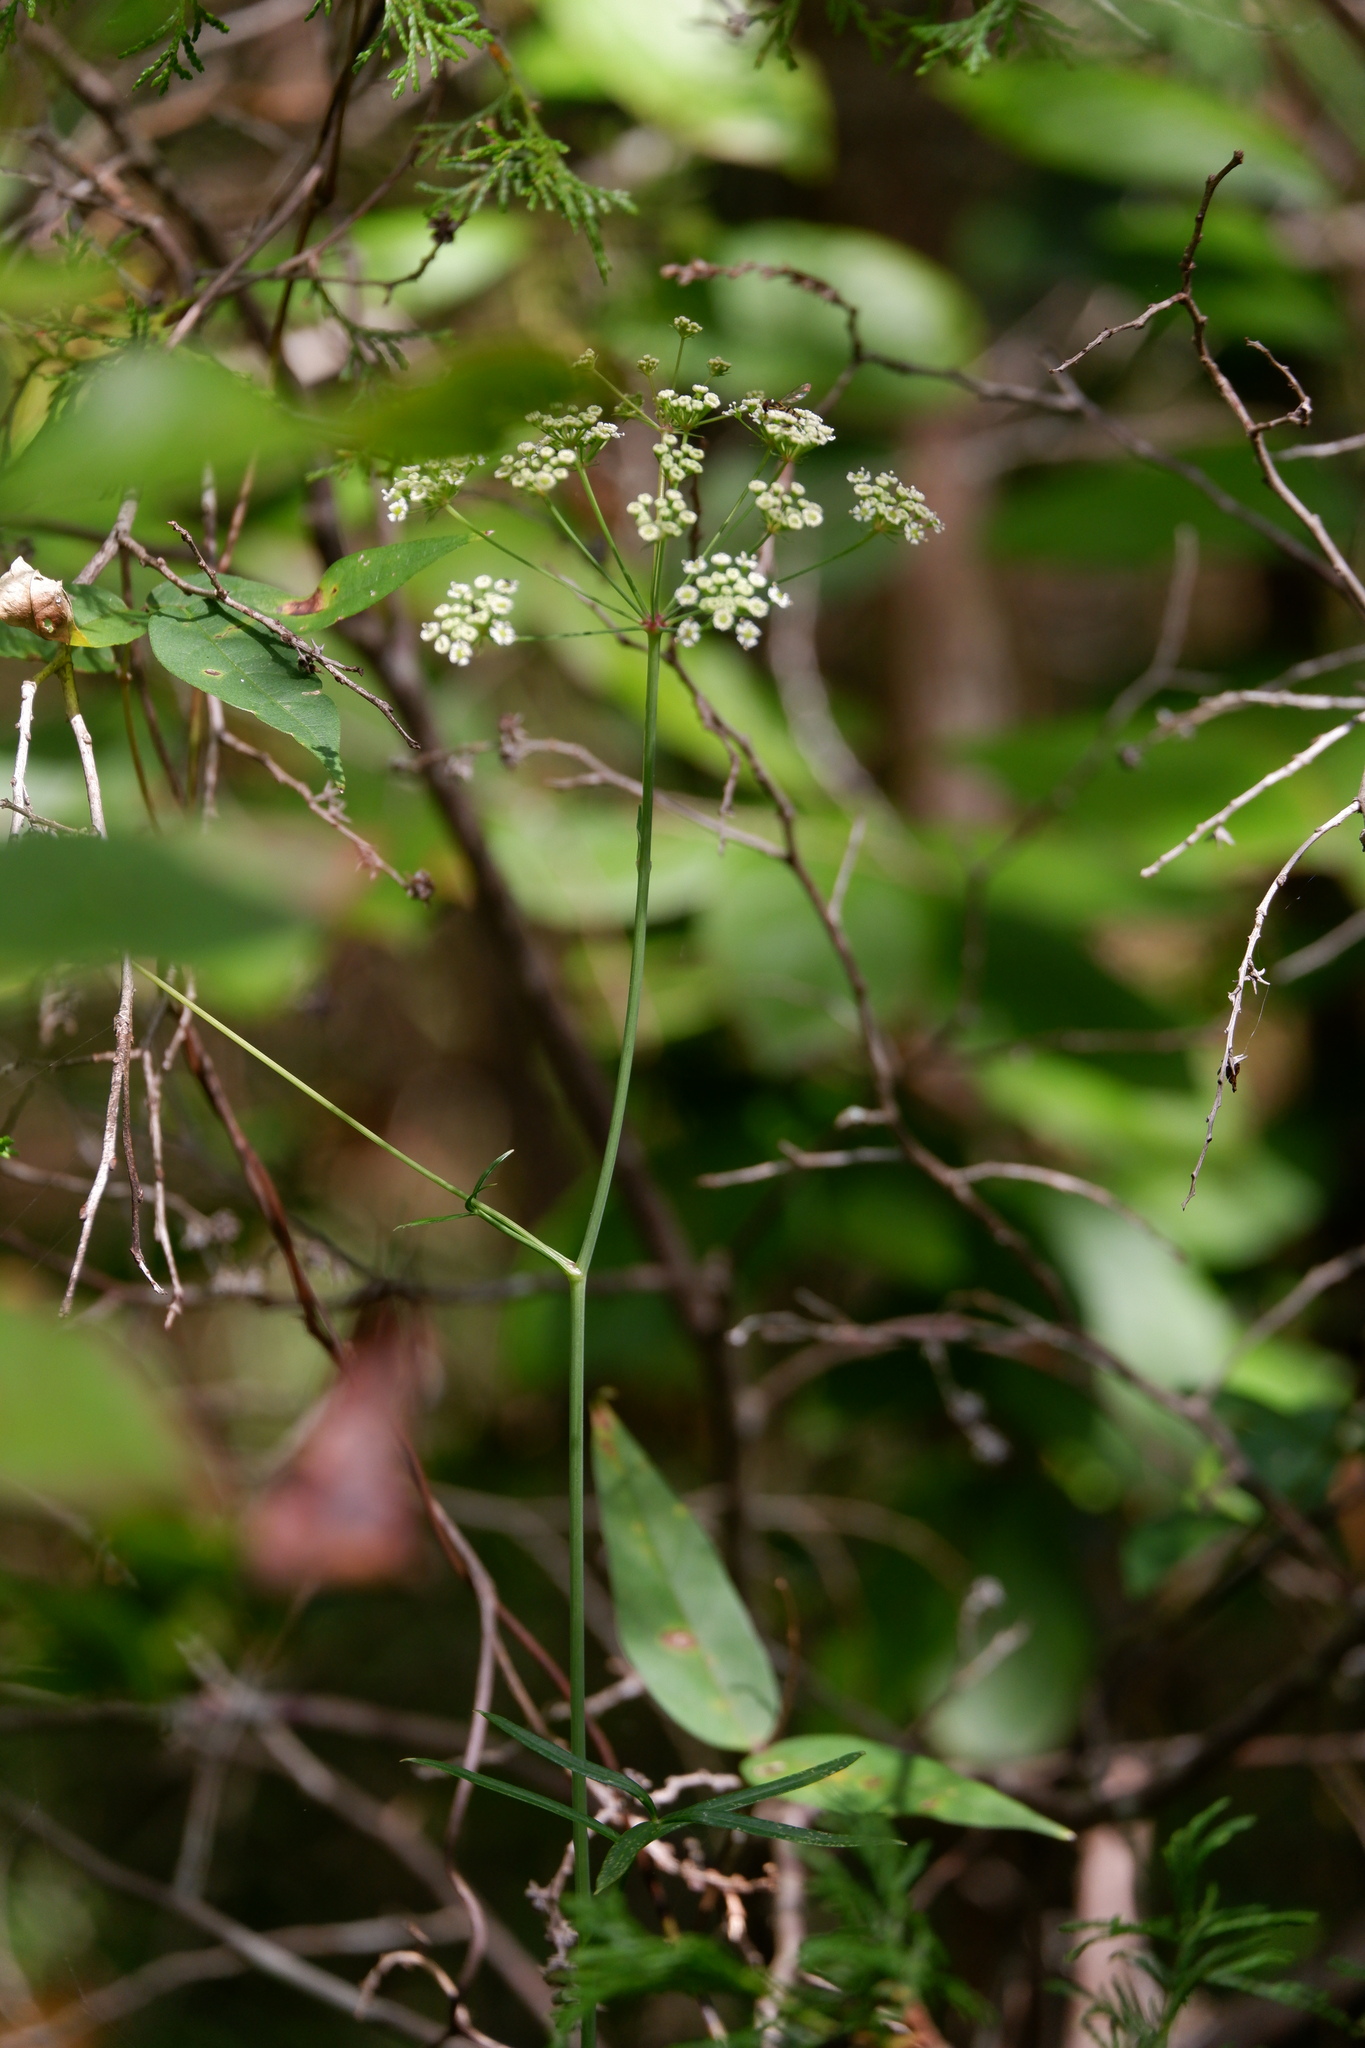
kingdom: Plantae
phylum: Tracheophyta
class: Magnoliopsida
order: Apiales
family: Apiaceae
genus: Oxypolis
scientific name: Oxypolis rigidior
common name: Cowbane
